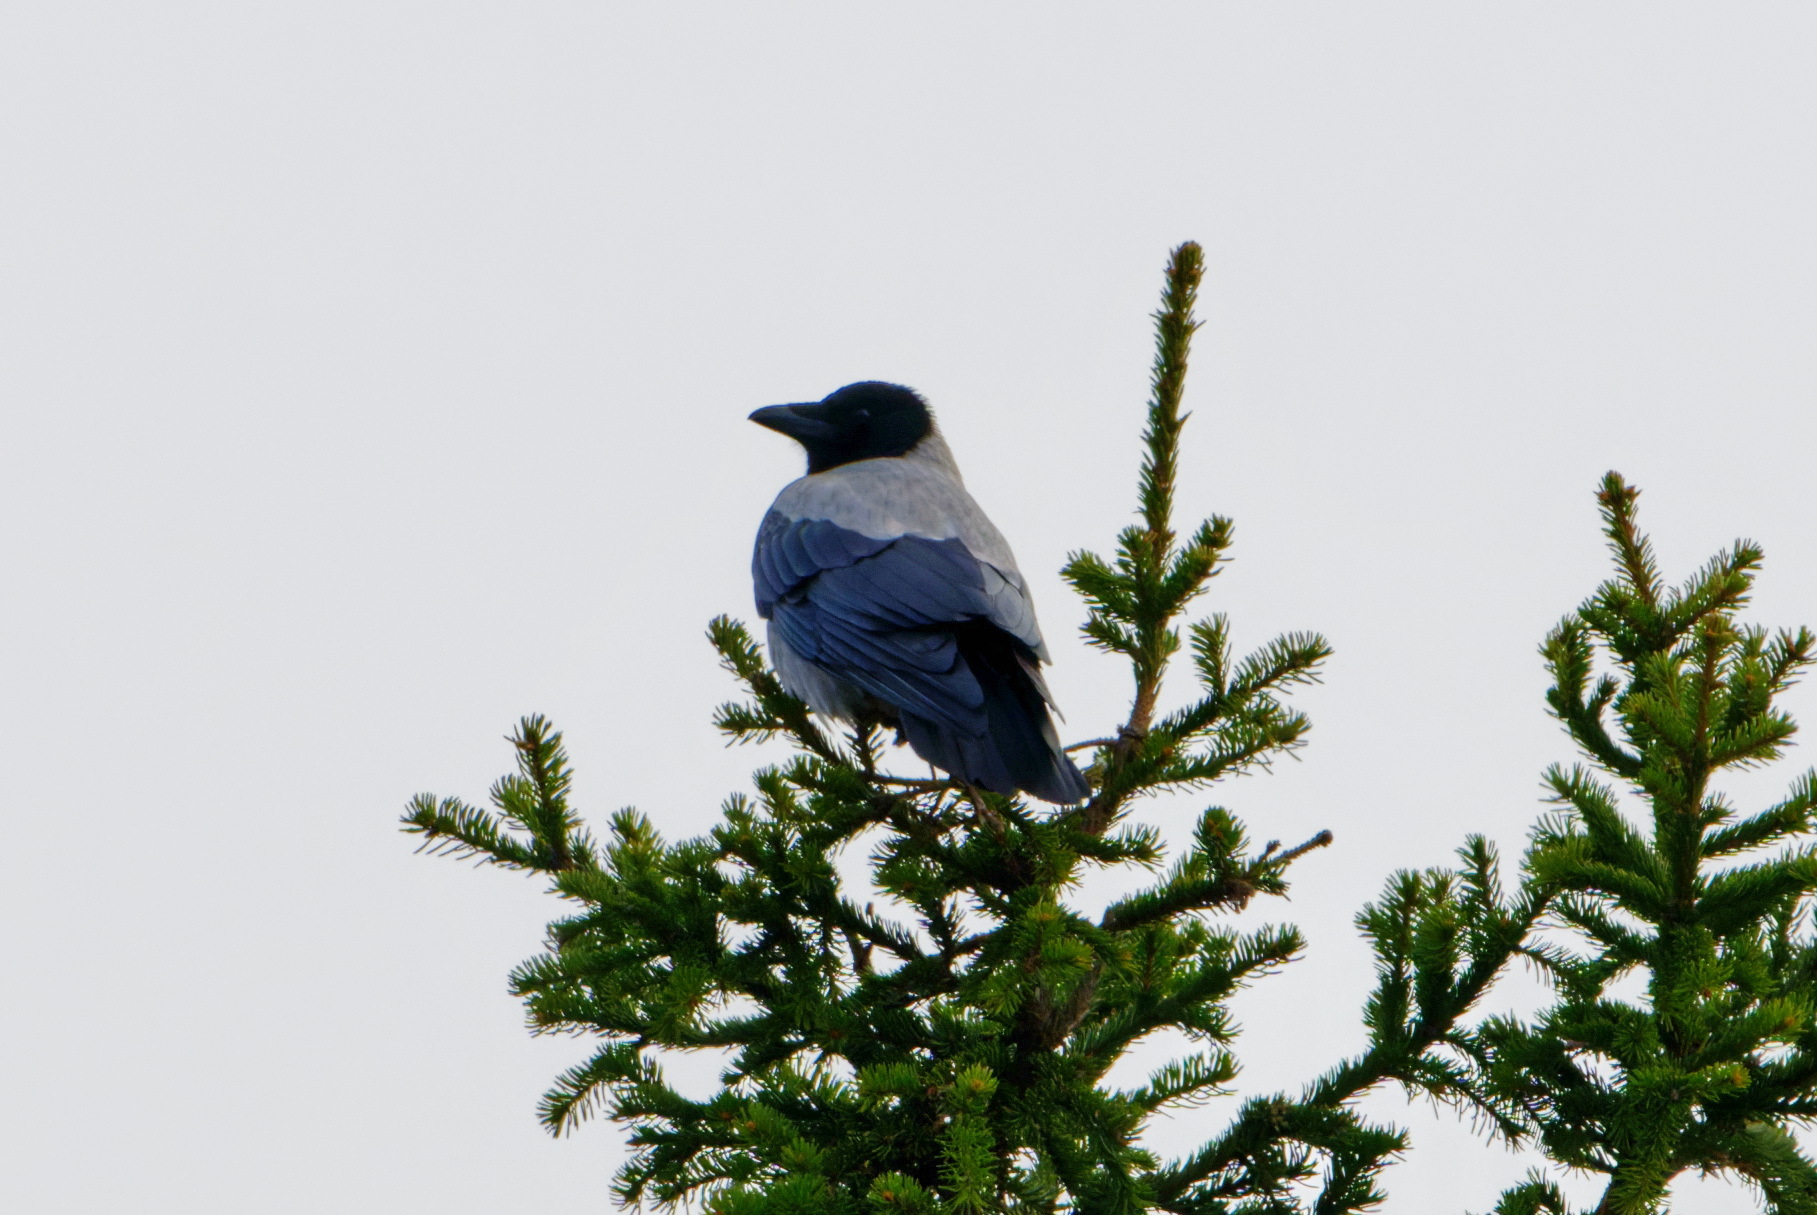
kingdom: Animalia
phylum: Chordata
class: Aves
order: Passeriformes
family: Corvidae
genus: Corvus
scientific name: Corvus cornix
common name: Hooded crow
